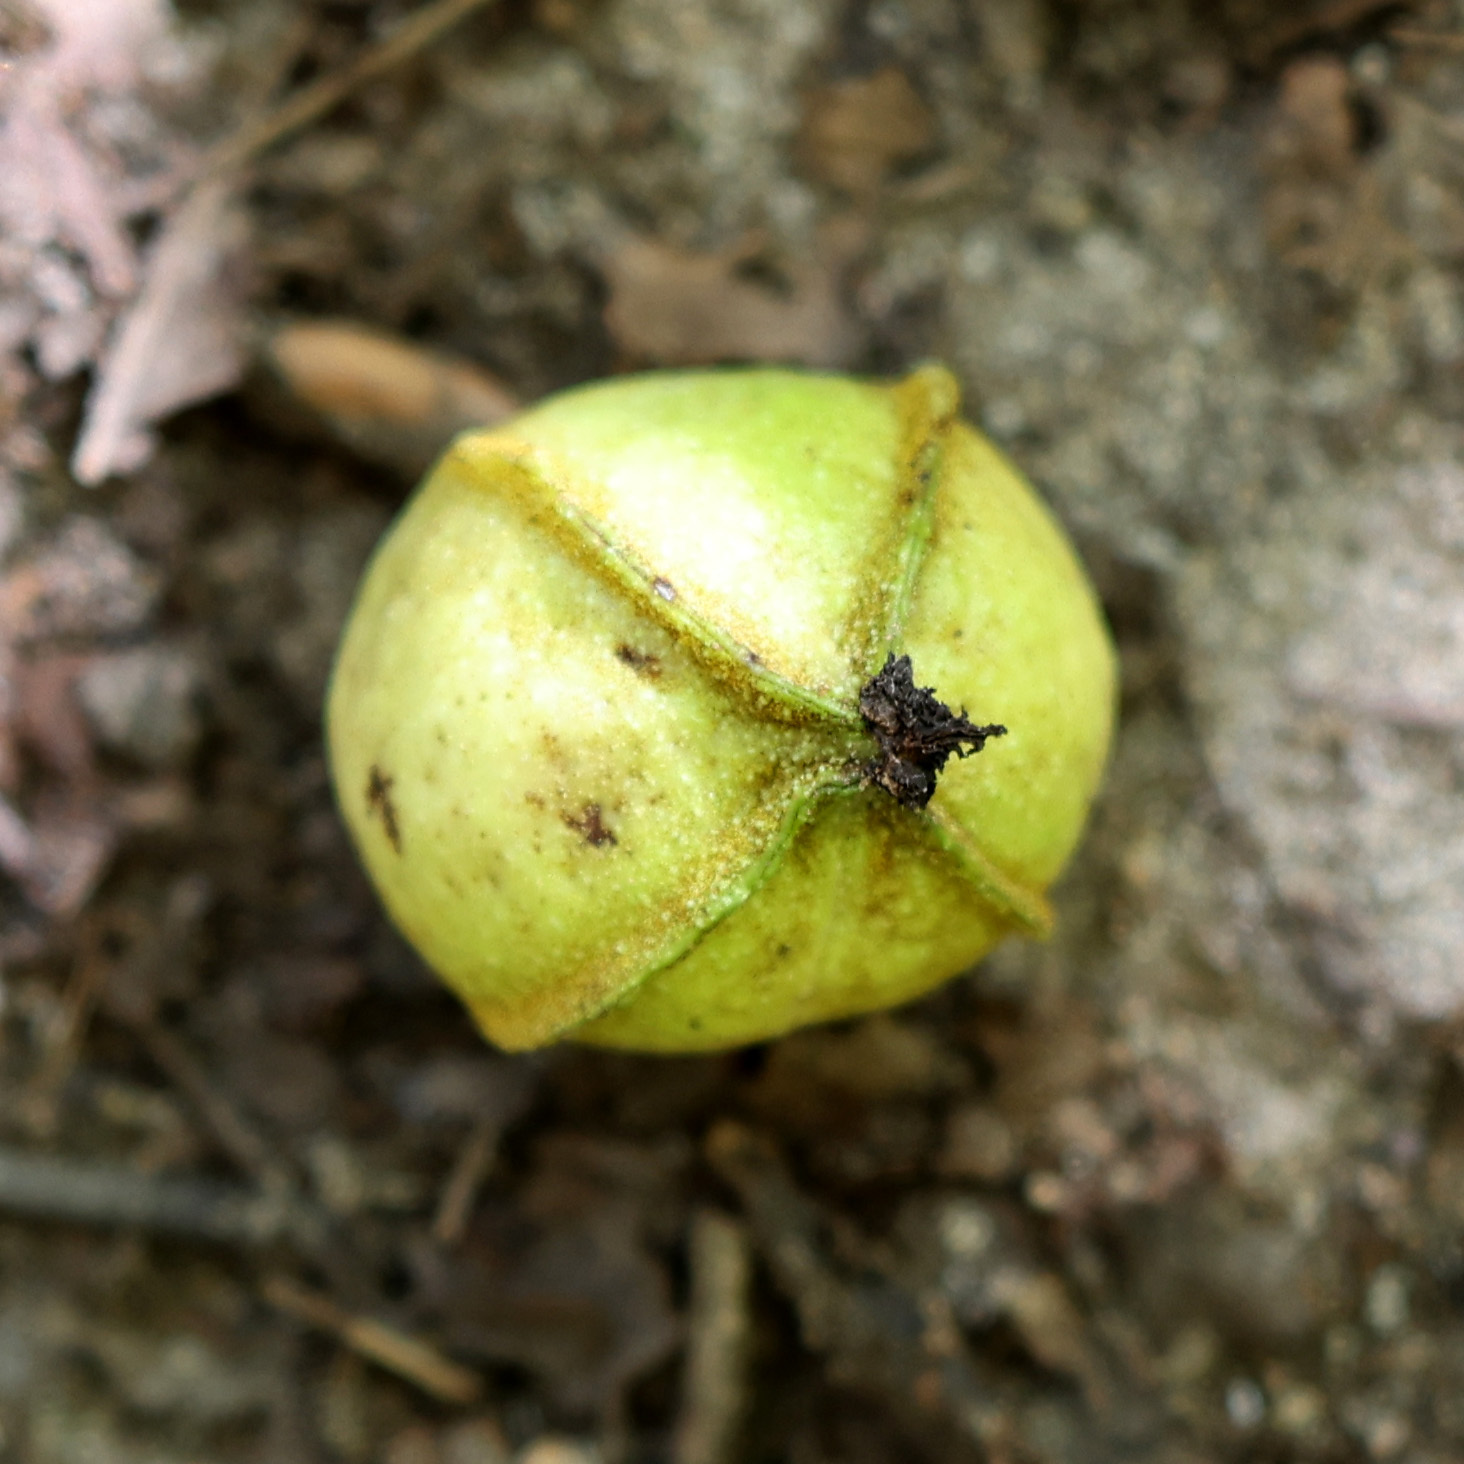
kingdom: Plantae
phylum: Tracheophyta
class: Magnoliopsida
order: Fagales
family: Juglandaceae
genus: Carya
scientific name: Carya cordiformis
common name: Bitternut hickory
